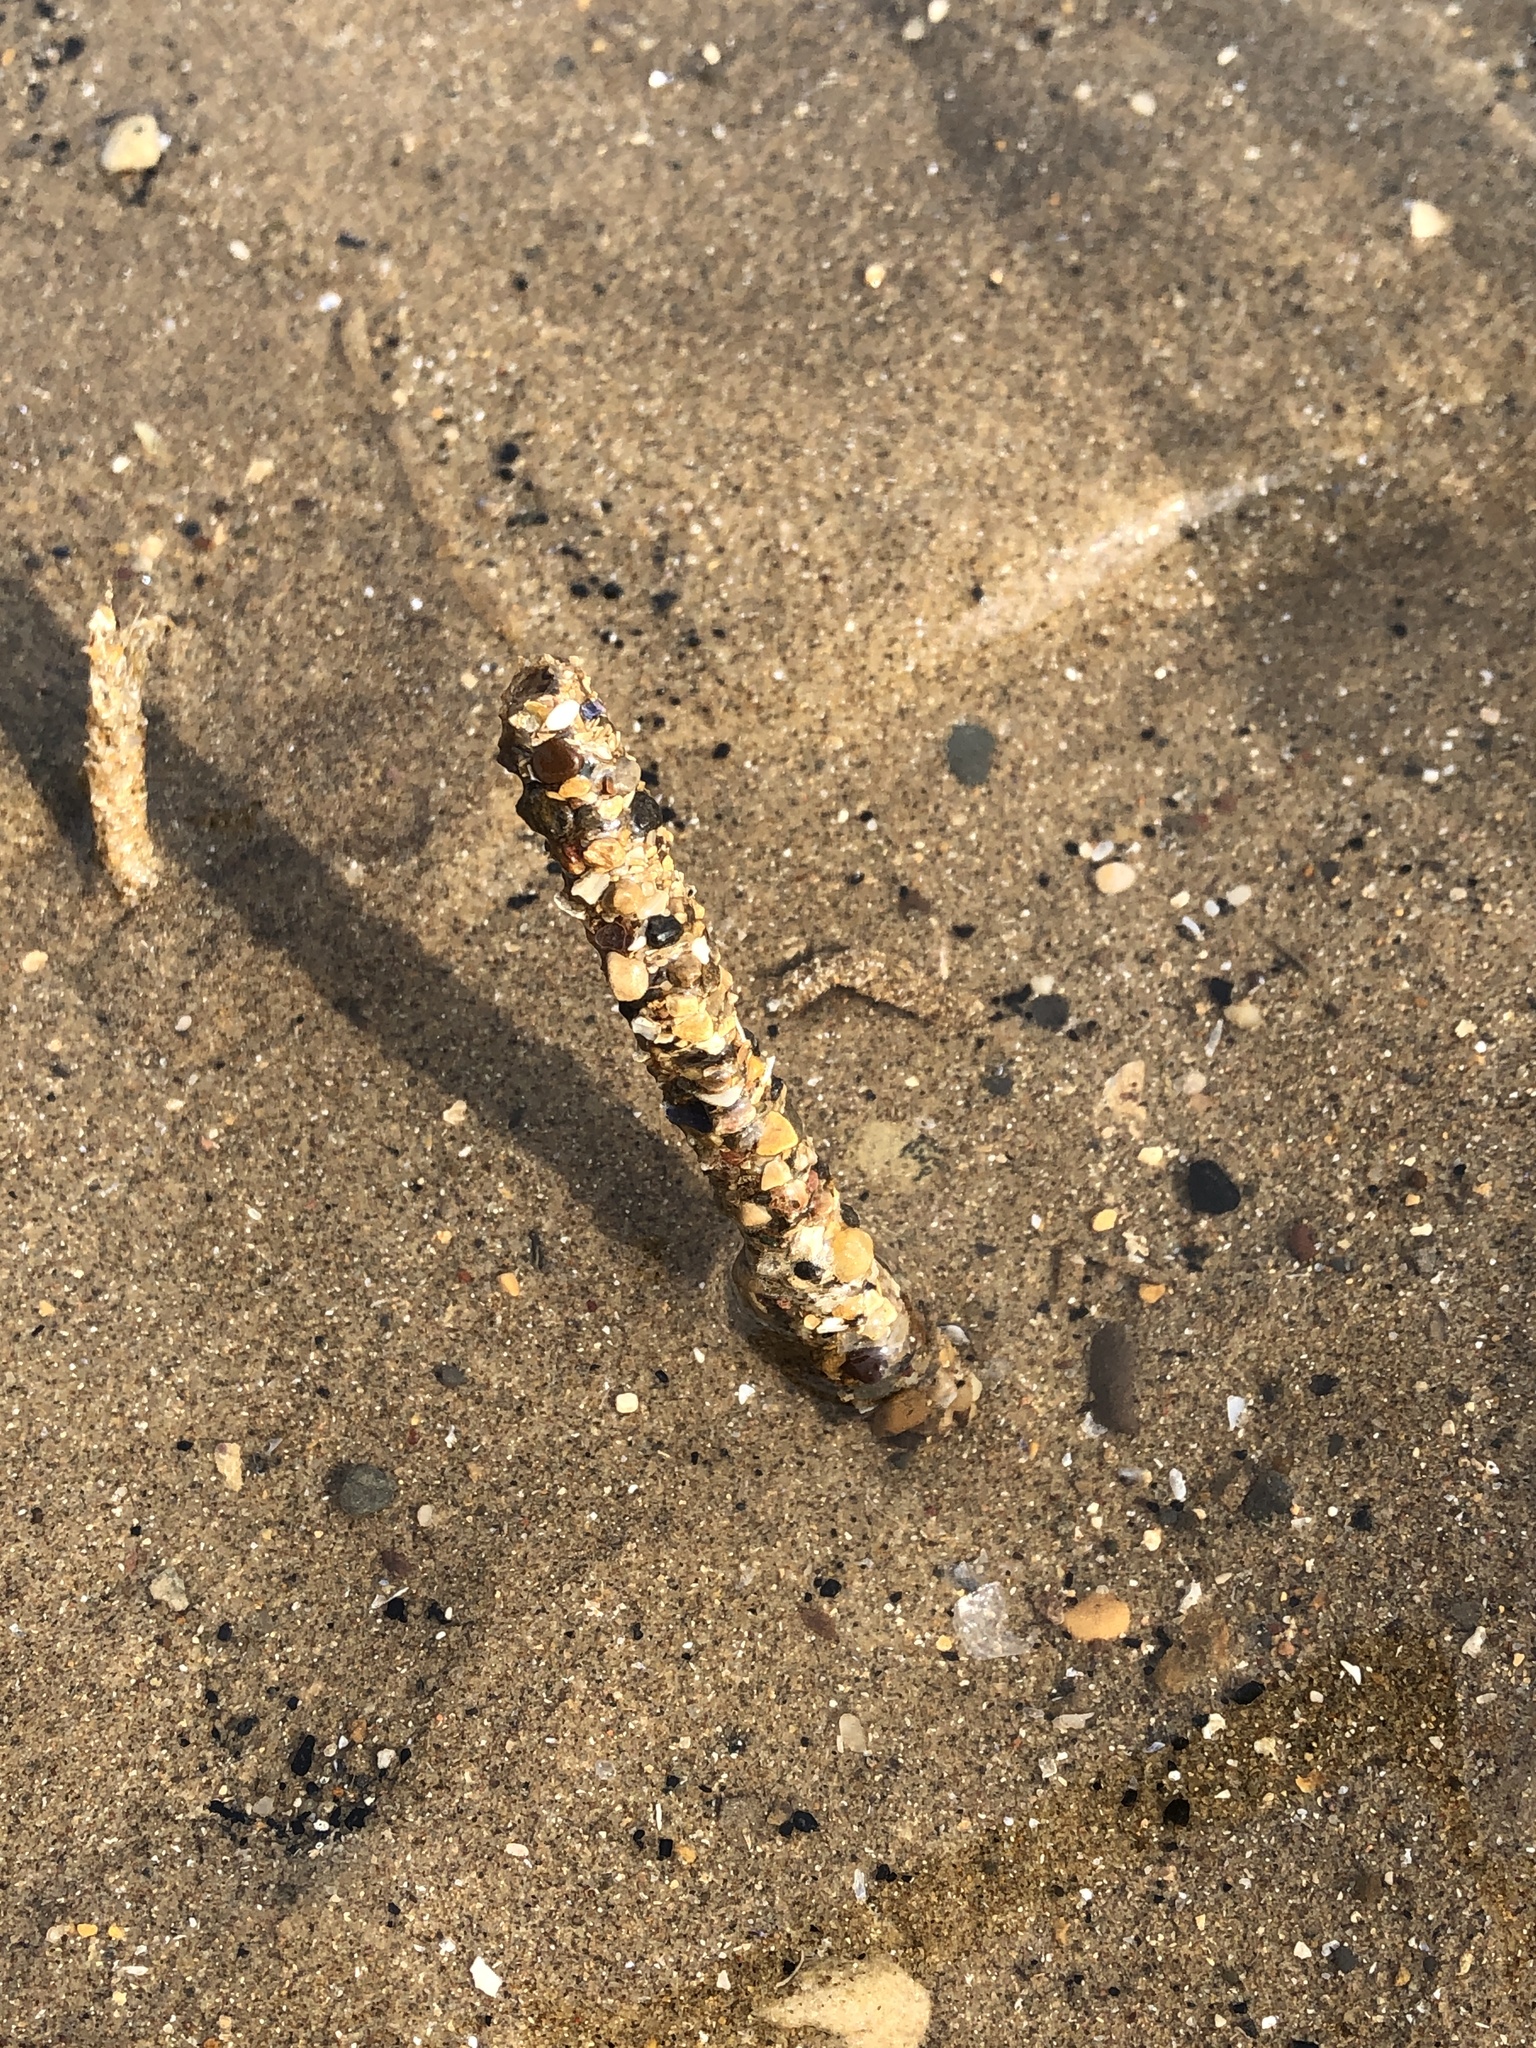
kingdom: Animalia
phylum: Annelida
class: Polychaeta
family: Terebellidae
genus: Lanice
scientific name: Lanice conchilega
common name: Sand mason
